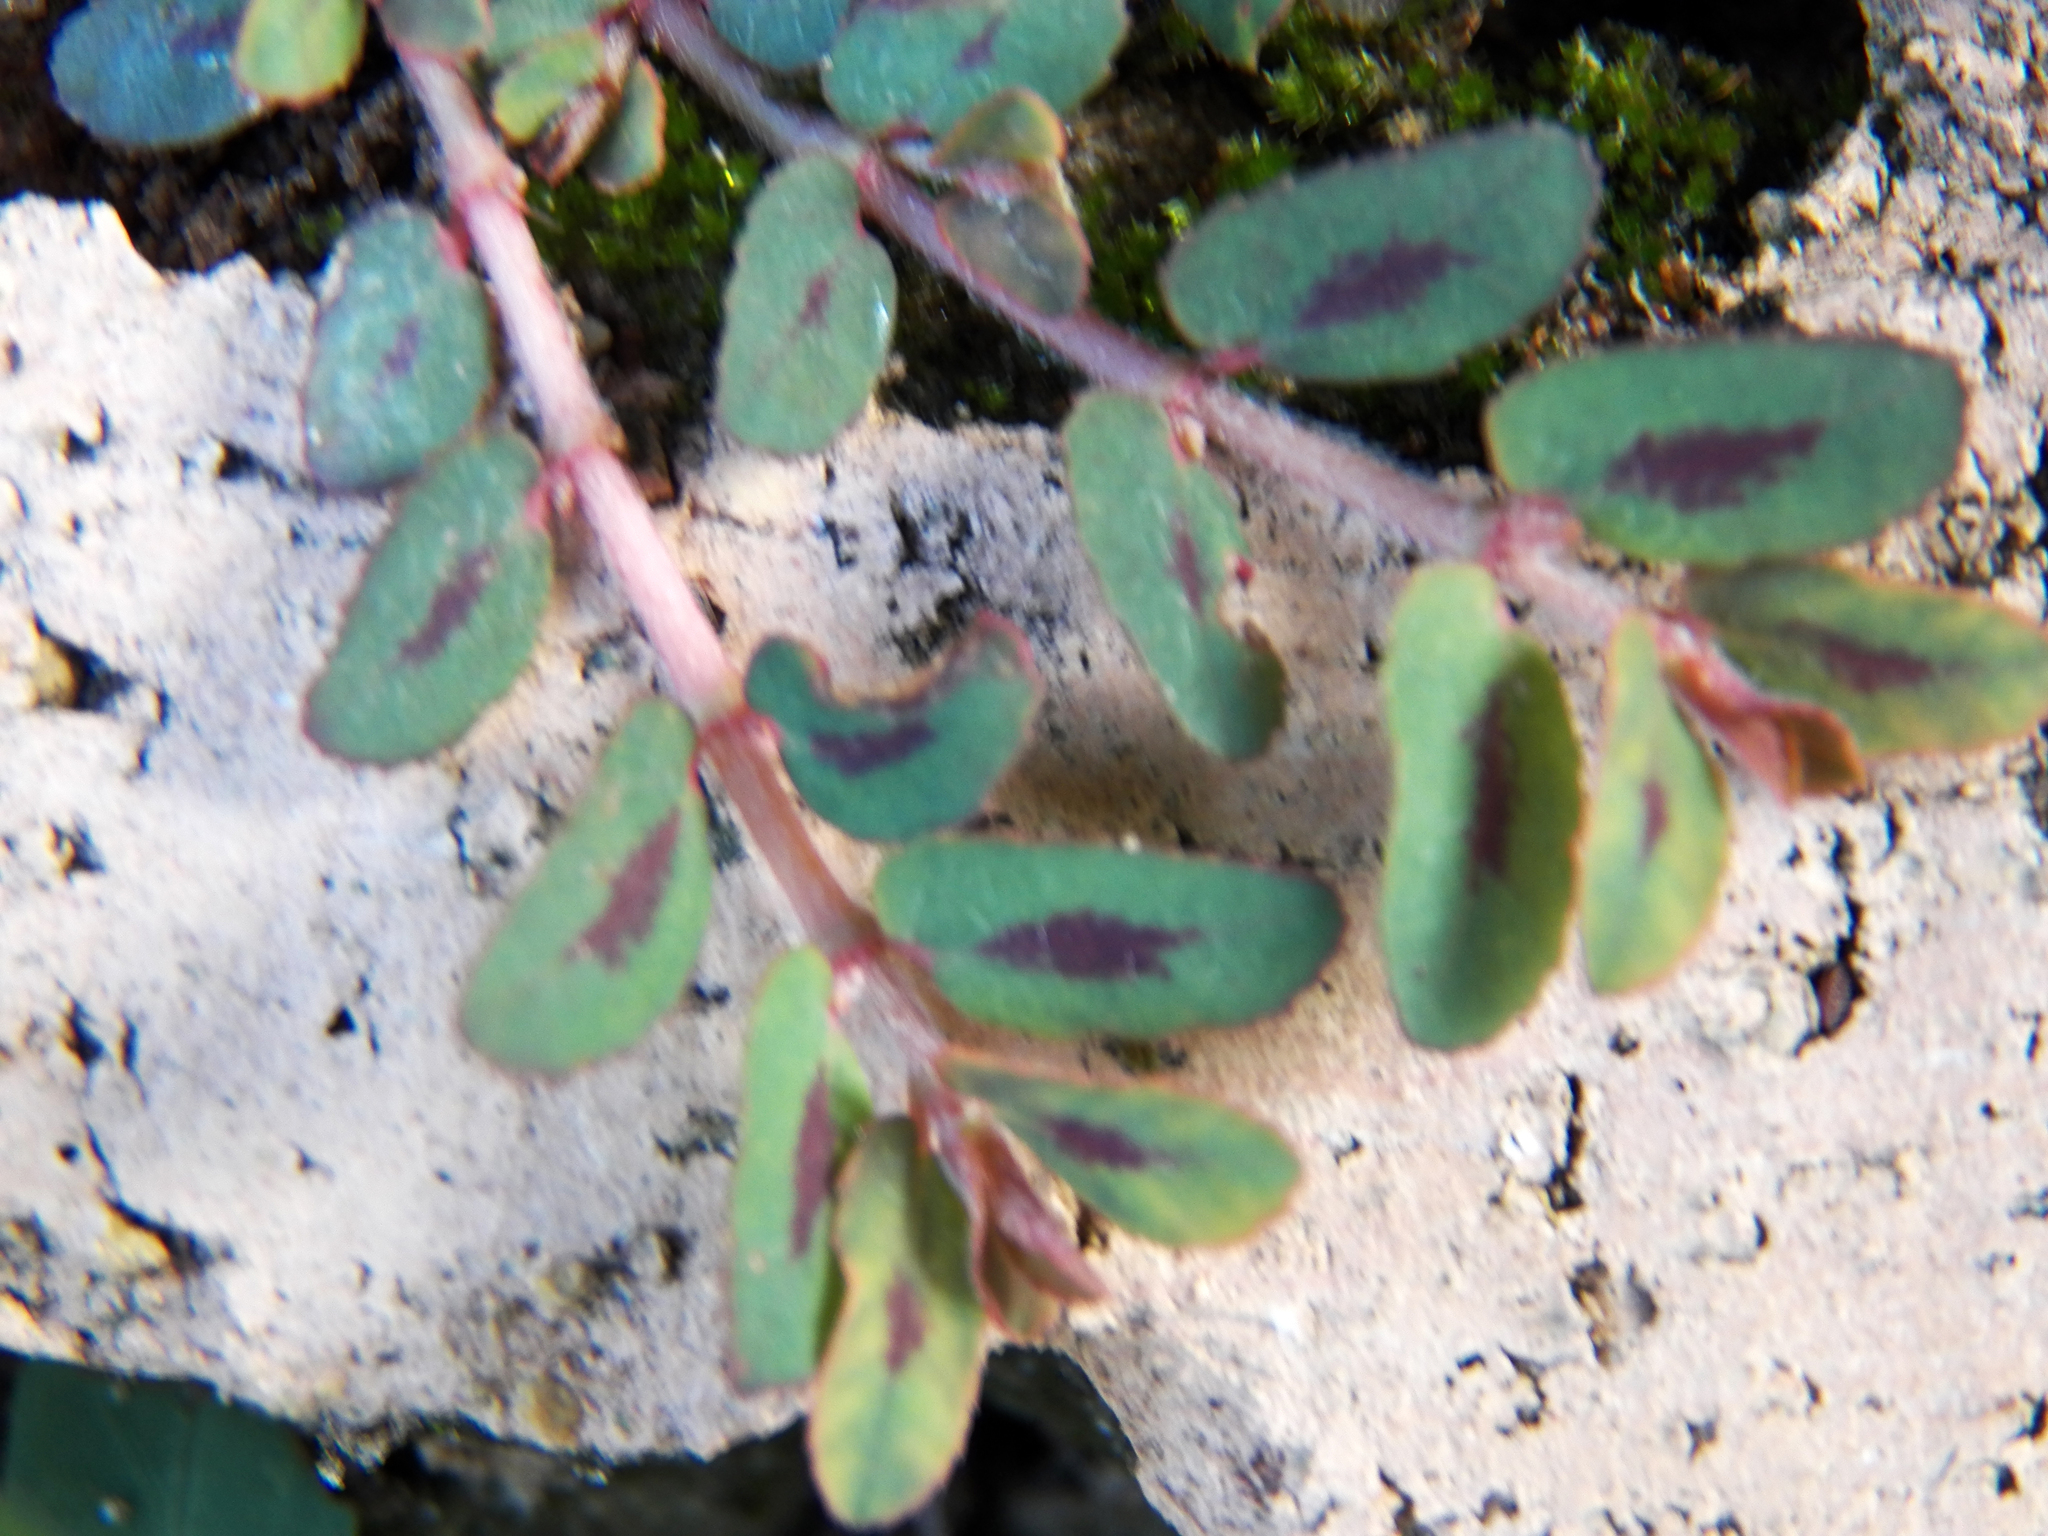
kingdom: Plantae
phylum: Tracheophyta
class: Magnoliopsida
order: Malpighiales
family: Euphorbiaceae
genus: Euphorbia
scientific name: Euphorbia maculata
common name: Spotted spurge
